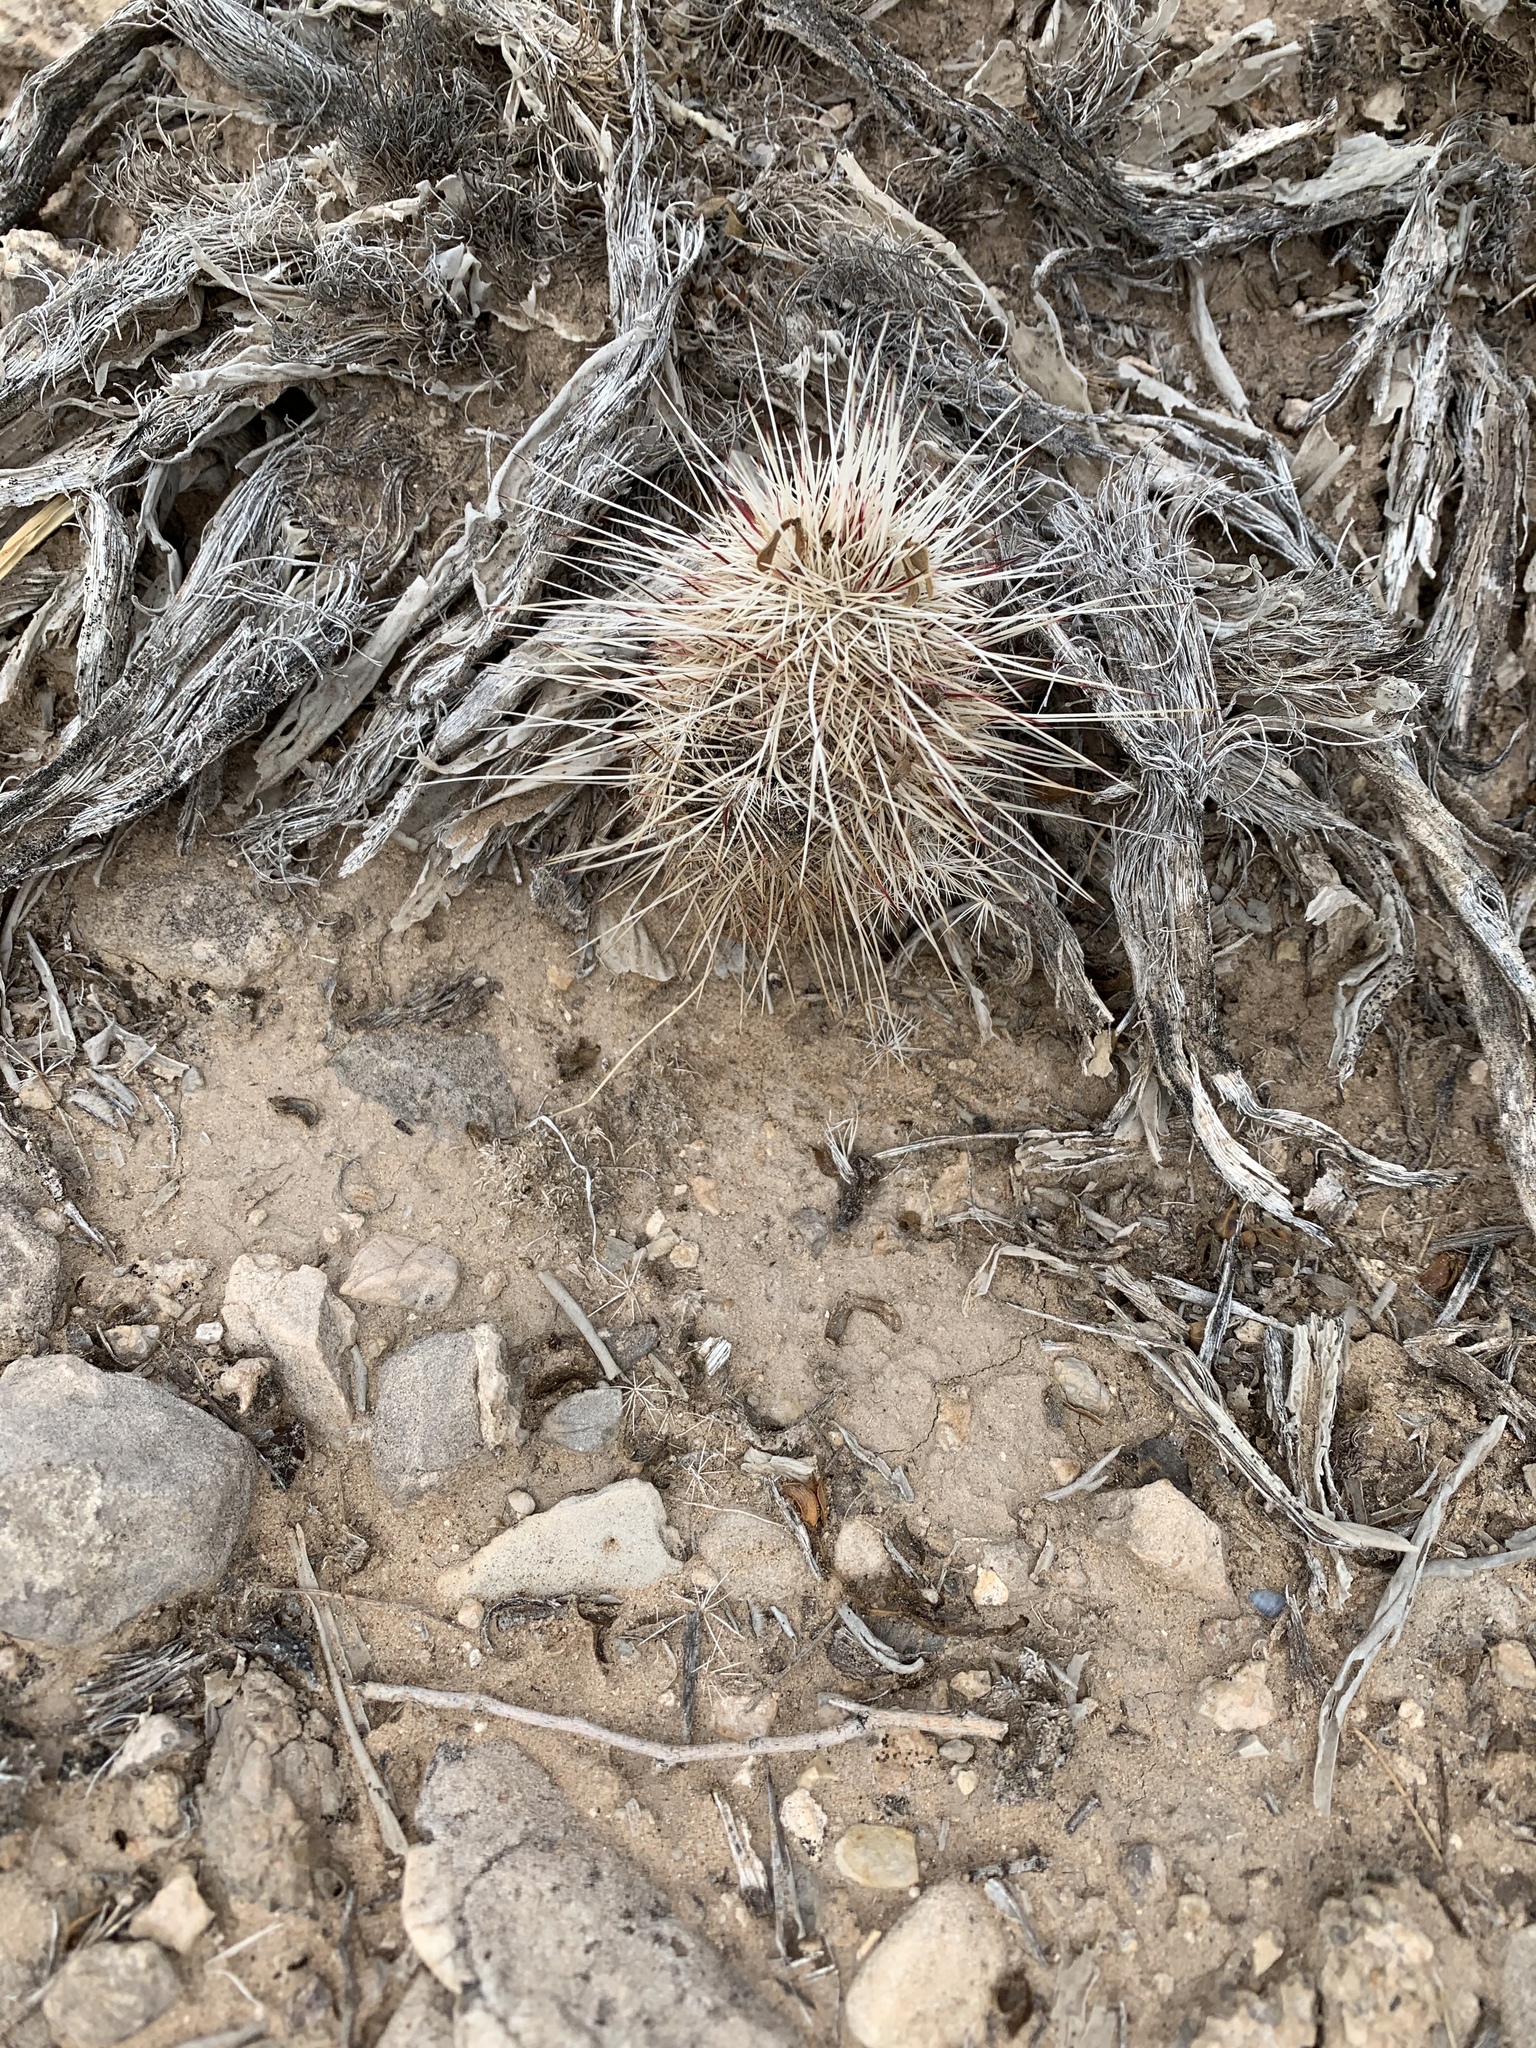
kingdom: Plantae
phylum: Tracheophyta
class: Magnoliopsida
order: Caryophyllales
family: Cactaceae
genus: Echinocereus
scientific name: Echinocereus viridiflorus
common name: Nylon hedgehog cactus
